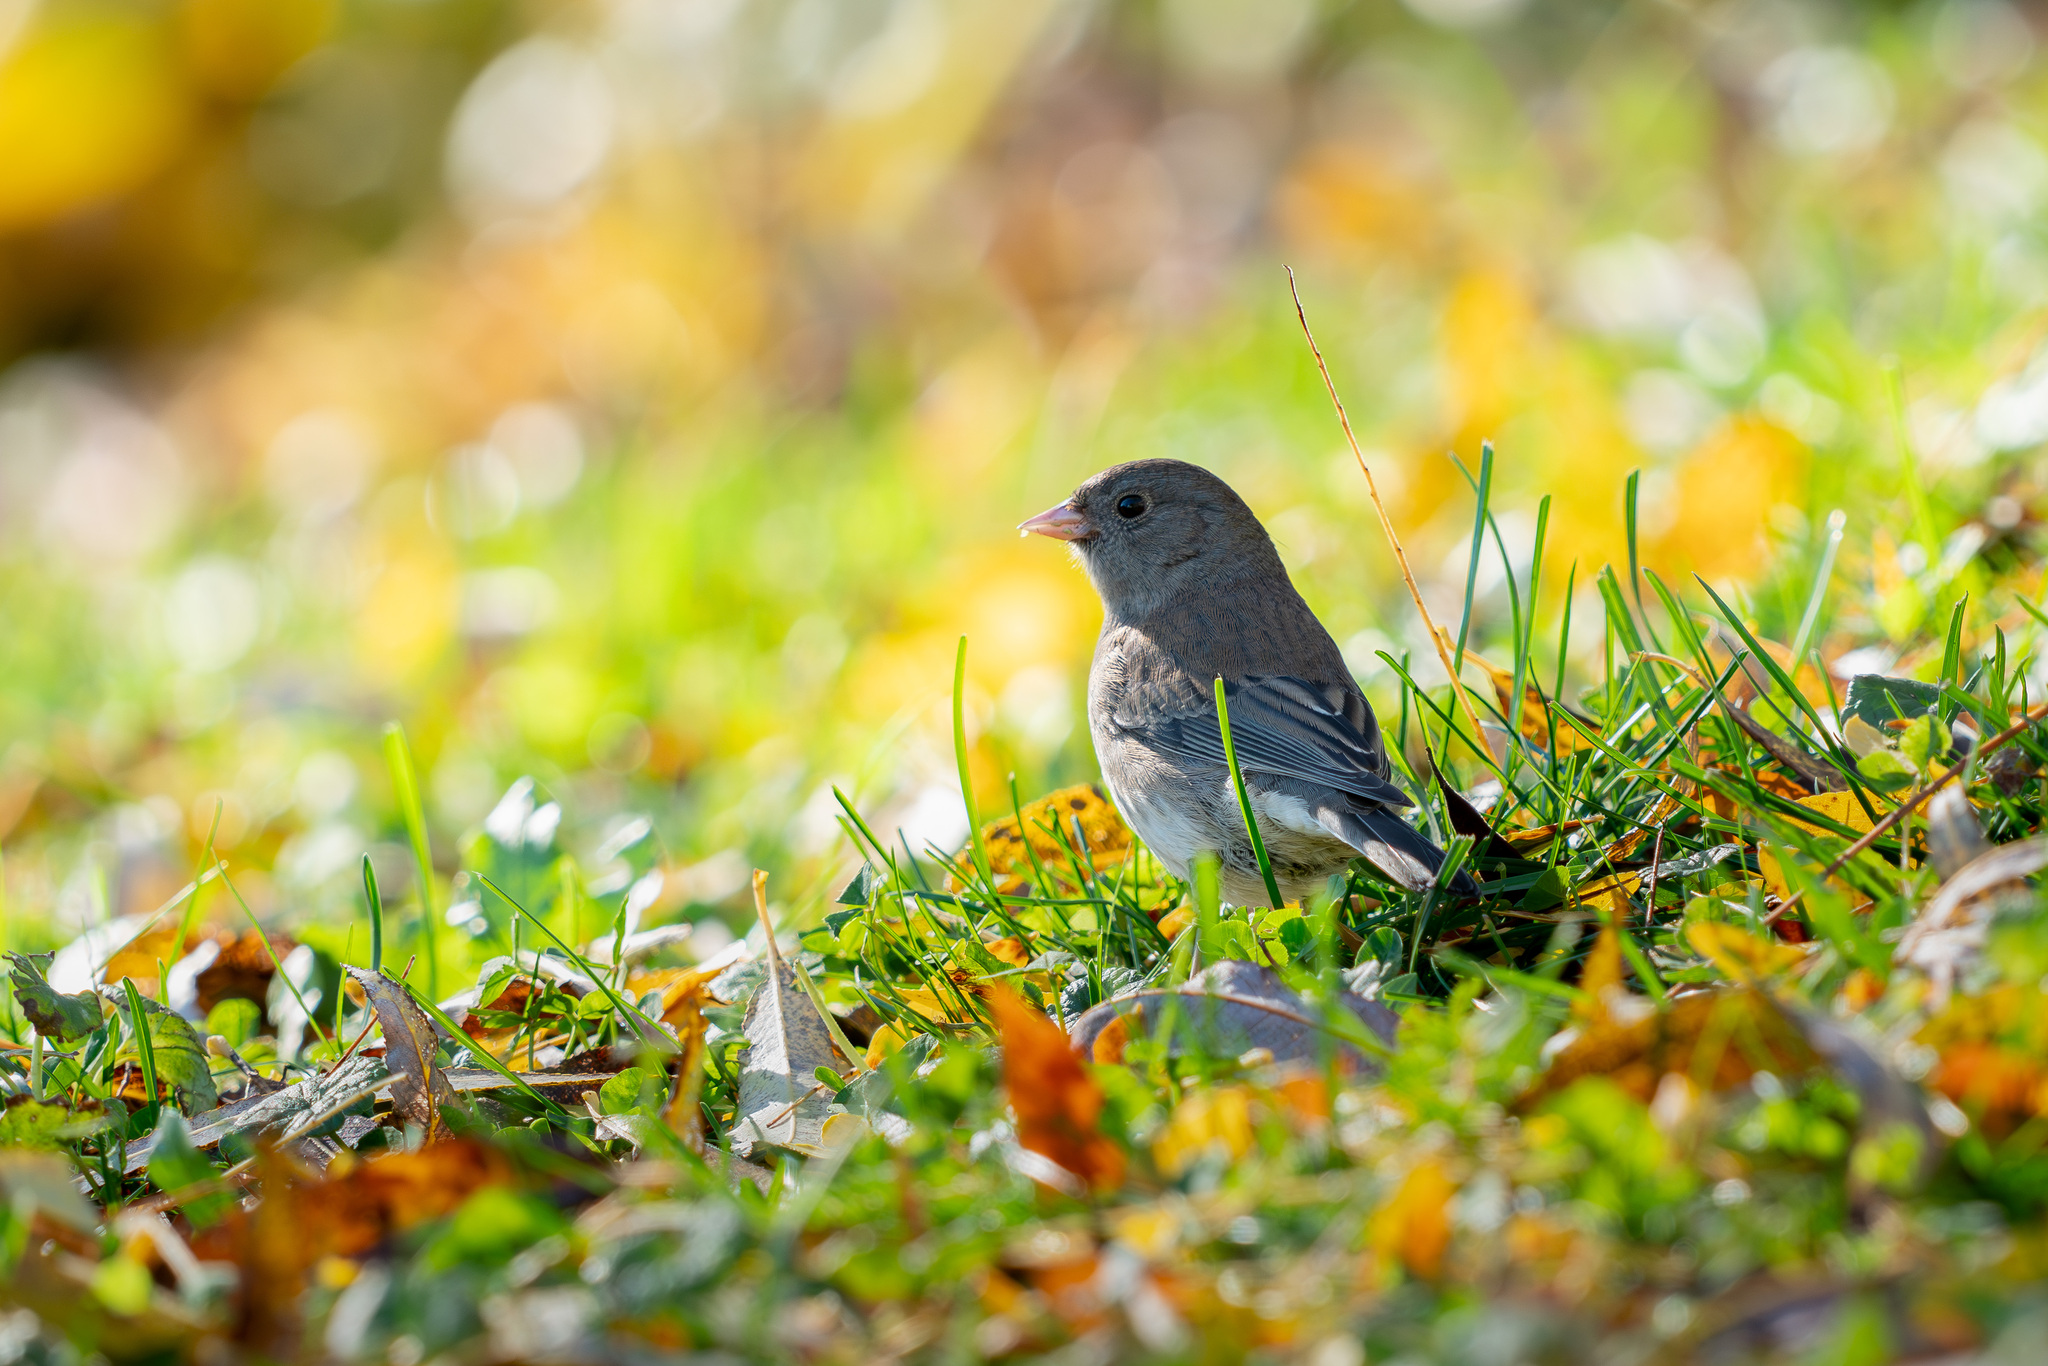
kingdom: Animalia
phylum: Chordata
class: Aves
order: Passeriformes
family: Passerellidae
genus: Junco
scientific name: Junco hyemalis
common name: Dark-eyed junco
